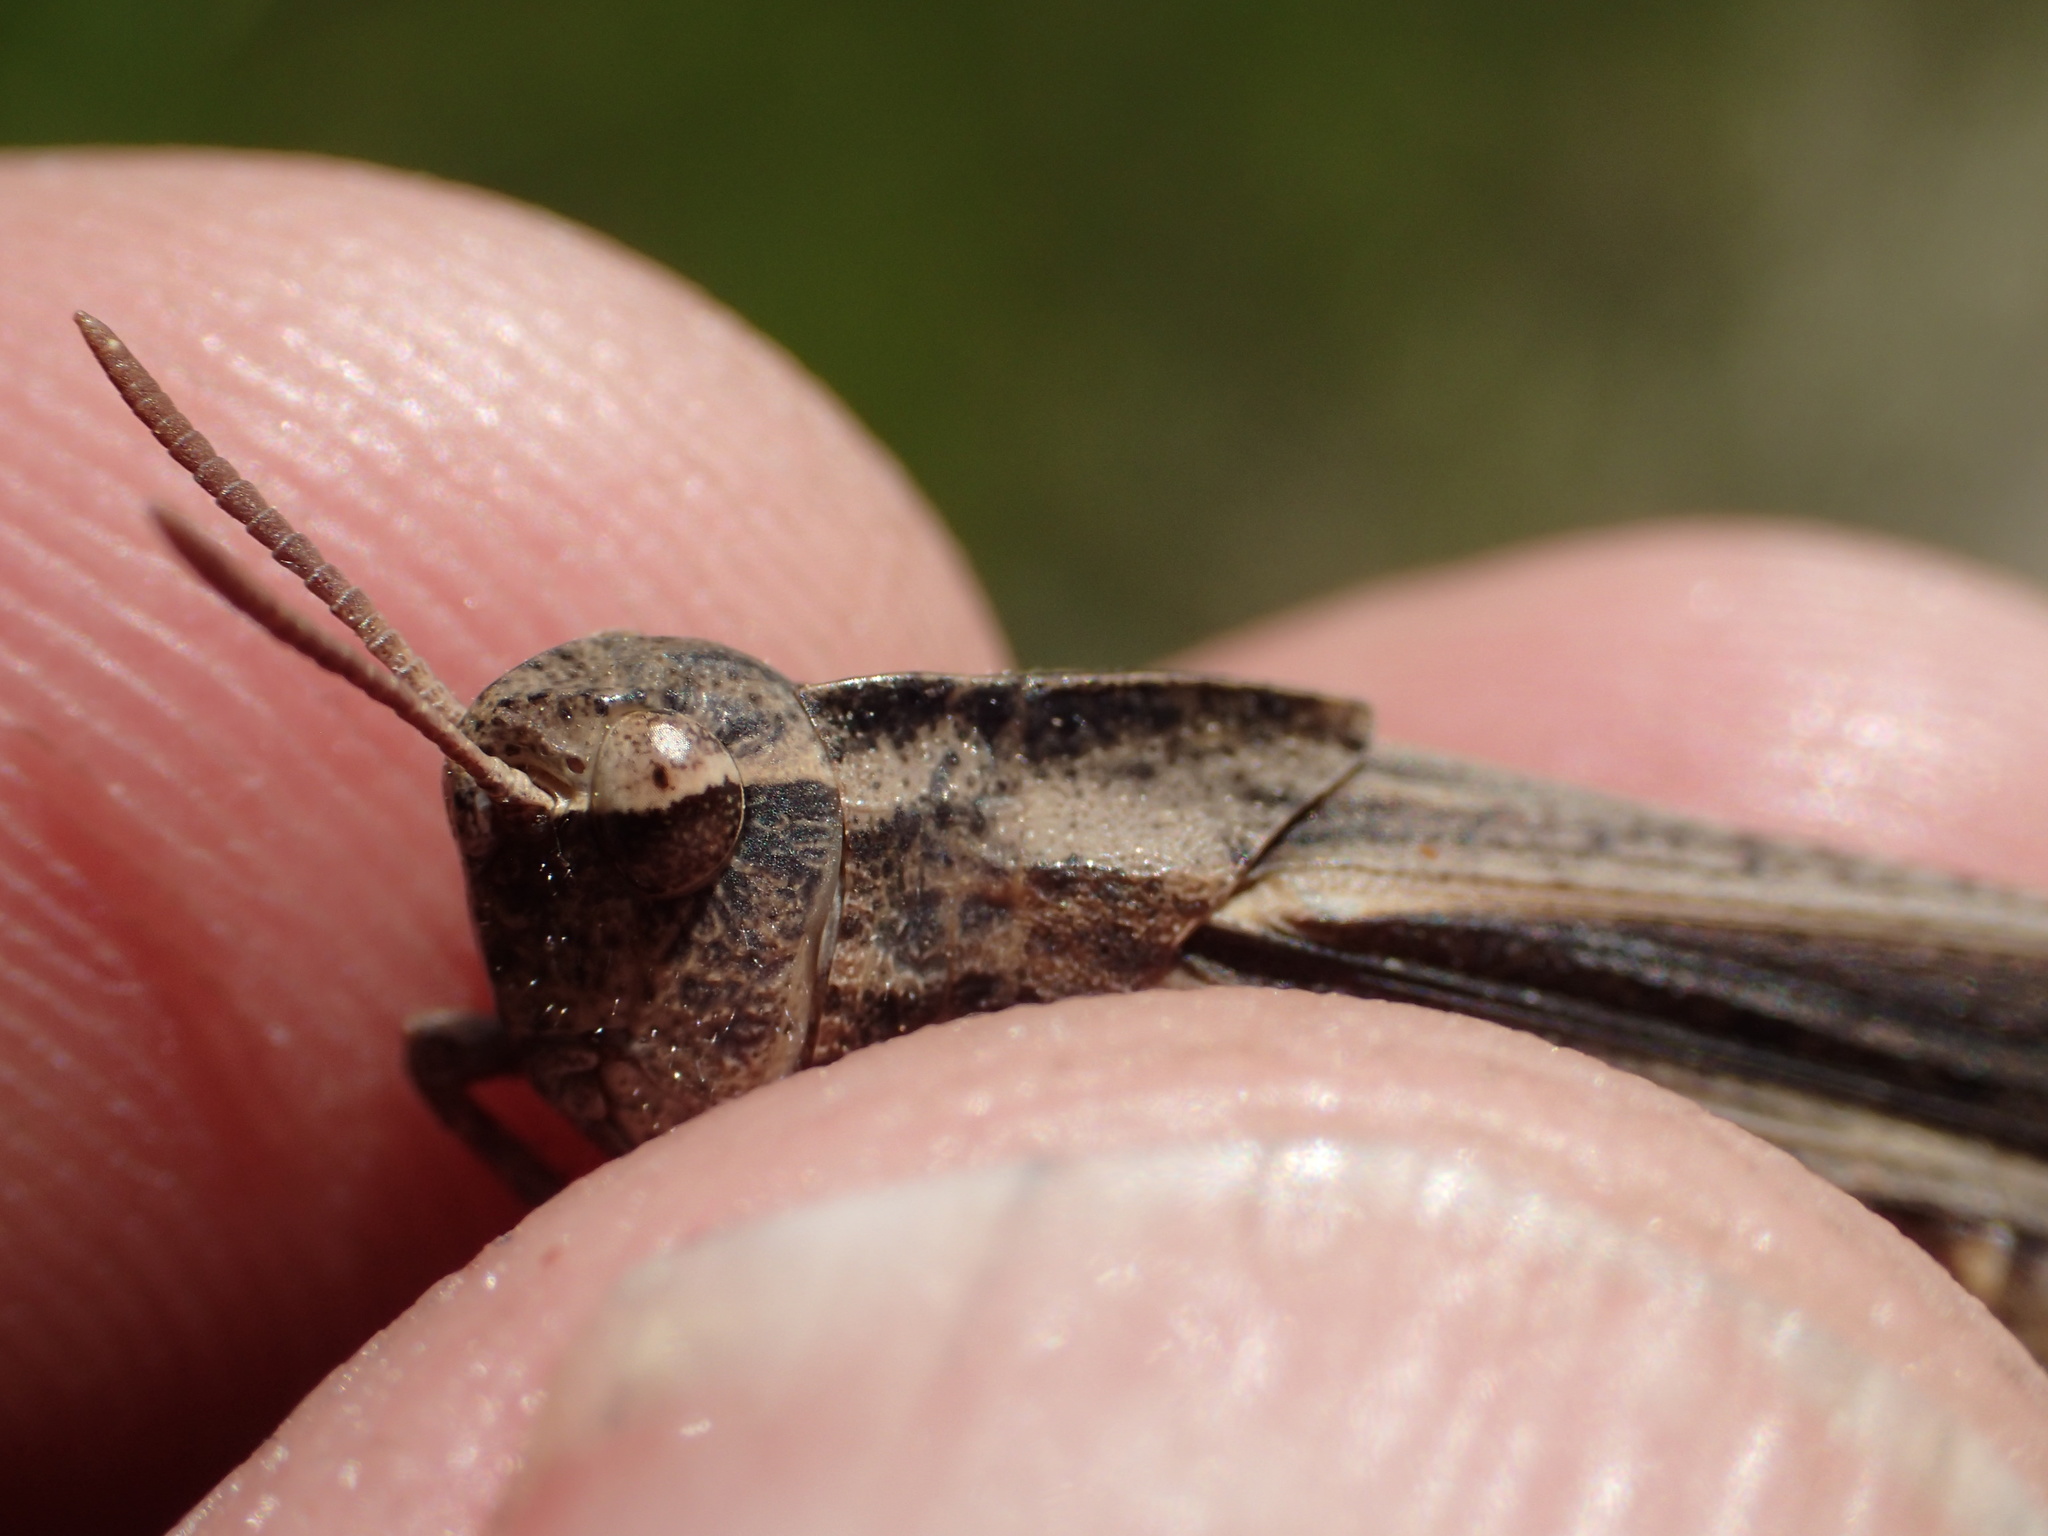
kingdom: Animalia
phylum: Arthropoda
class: Insecta
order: Orthoptera
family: Acrididae
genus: Chortophaga
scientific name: Chortophaga viridifasciata
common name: Green-striped grasshopper
